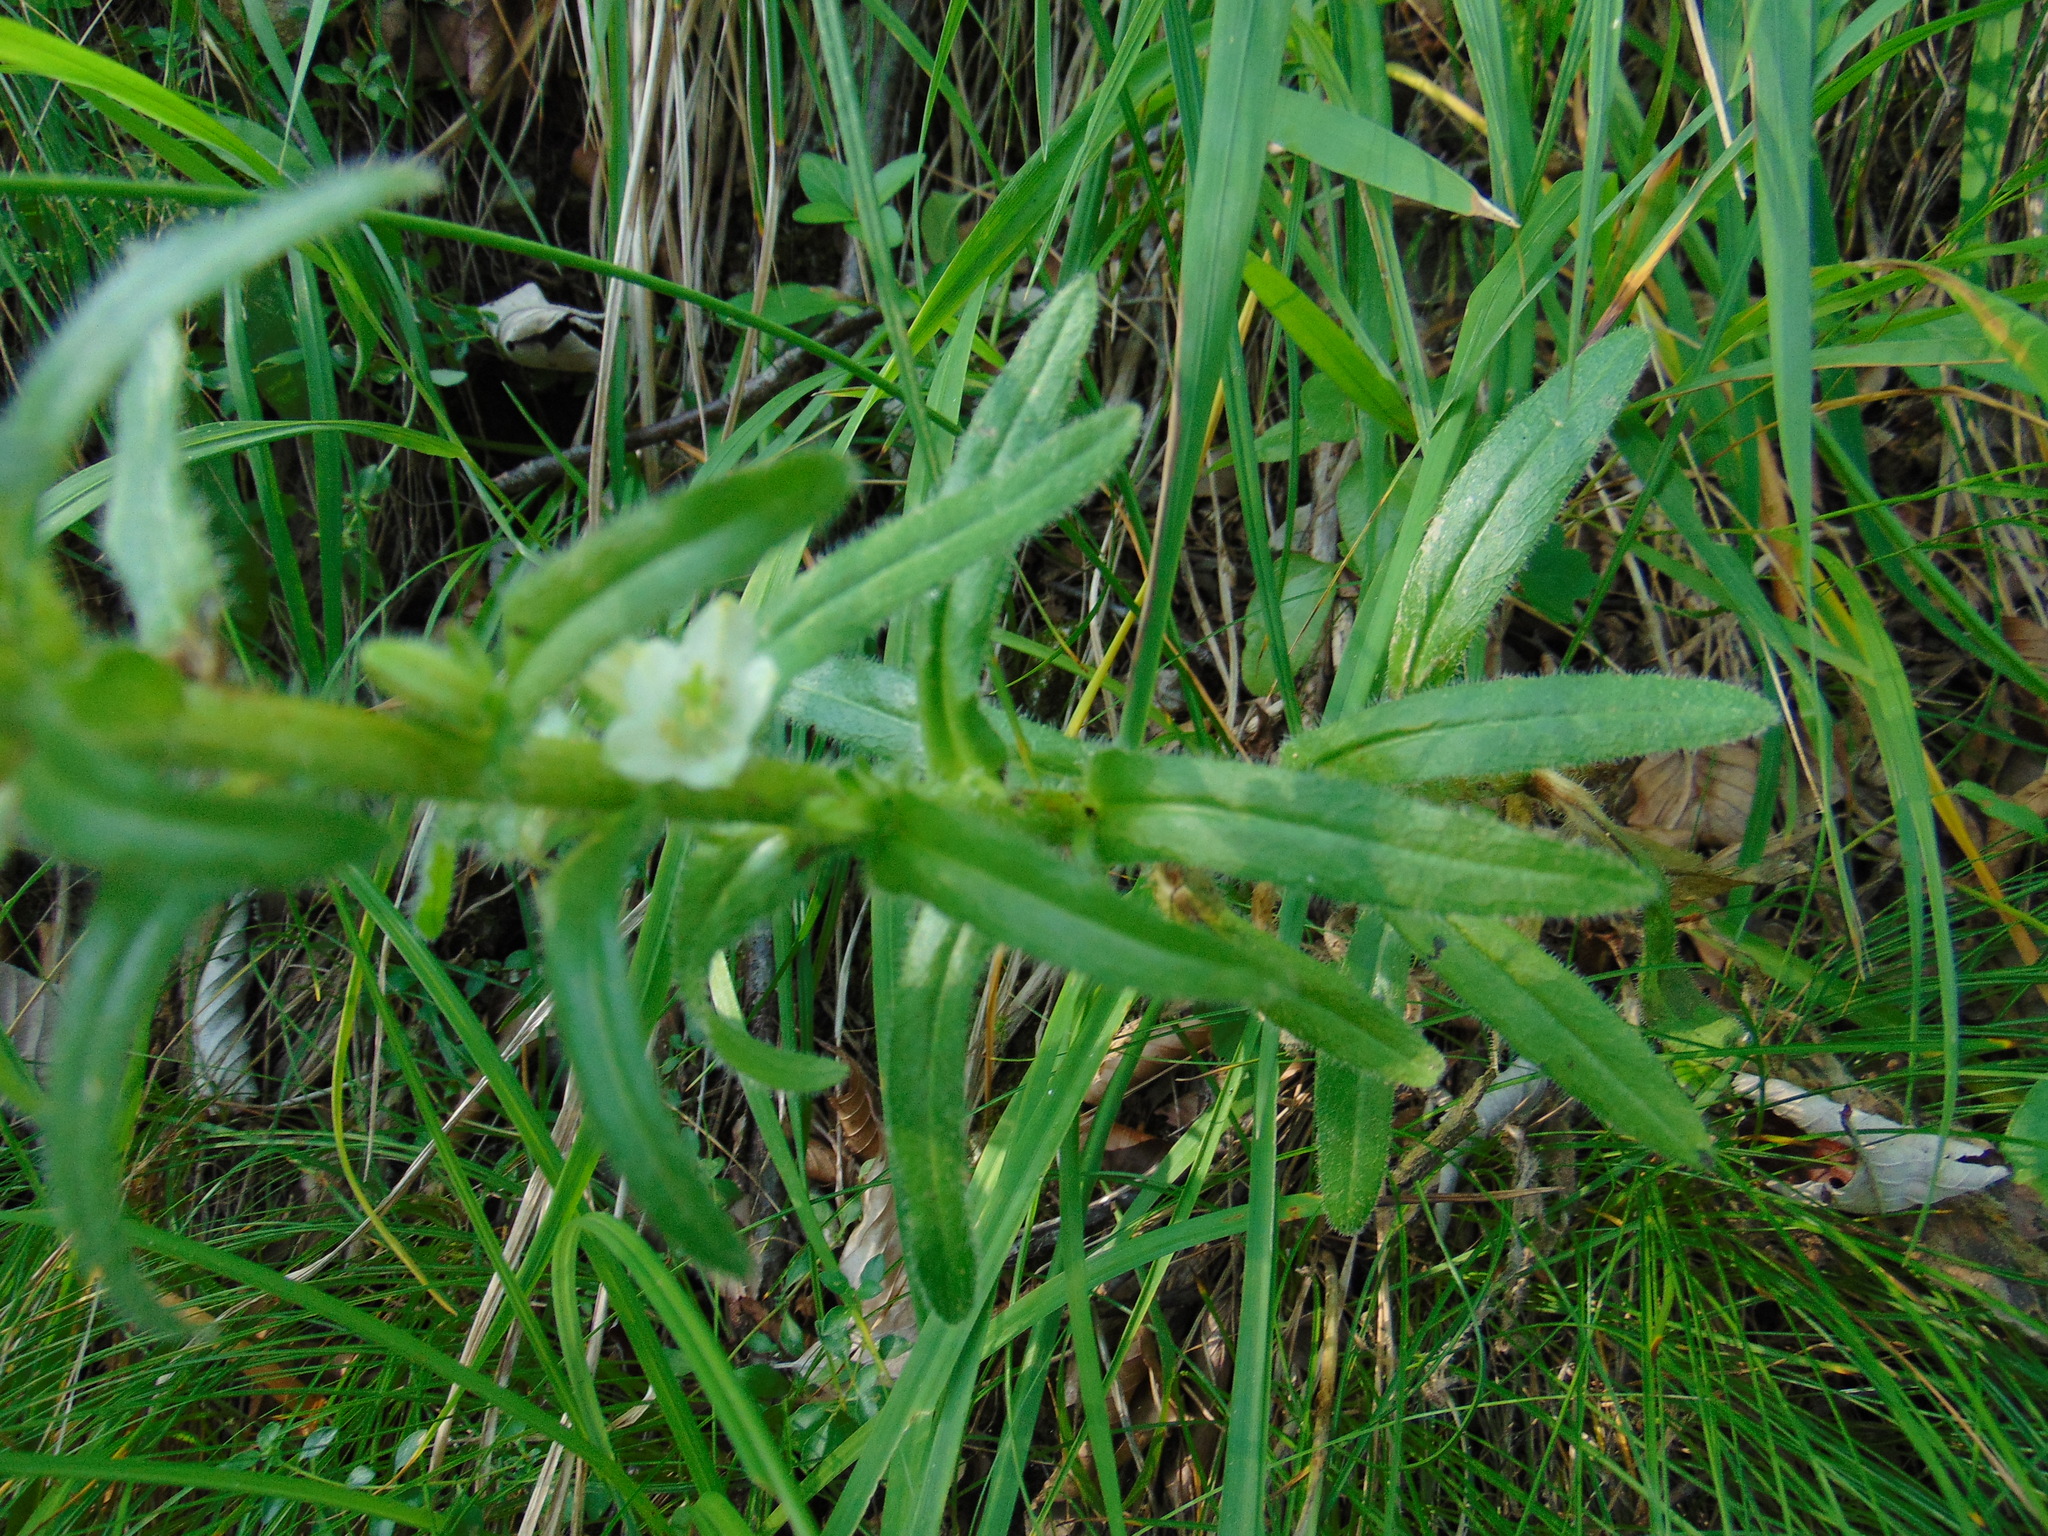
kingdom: Plantae
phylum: Tracheophyta
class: Magnoliopsida
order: Asterales
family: Campanulaceae
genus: Campanula
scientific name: Campanula thyrsoides
